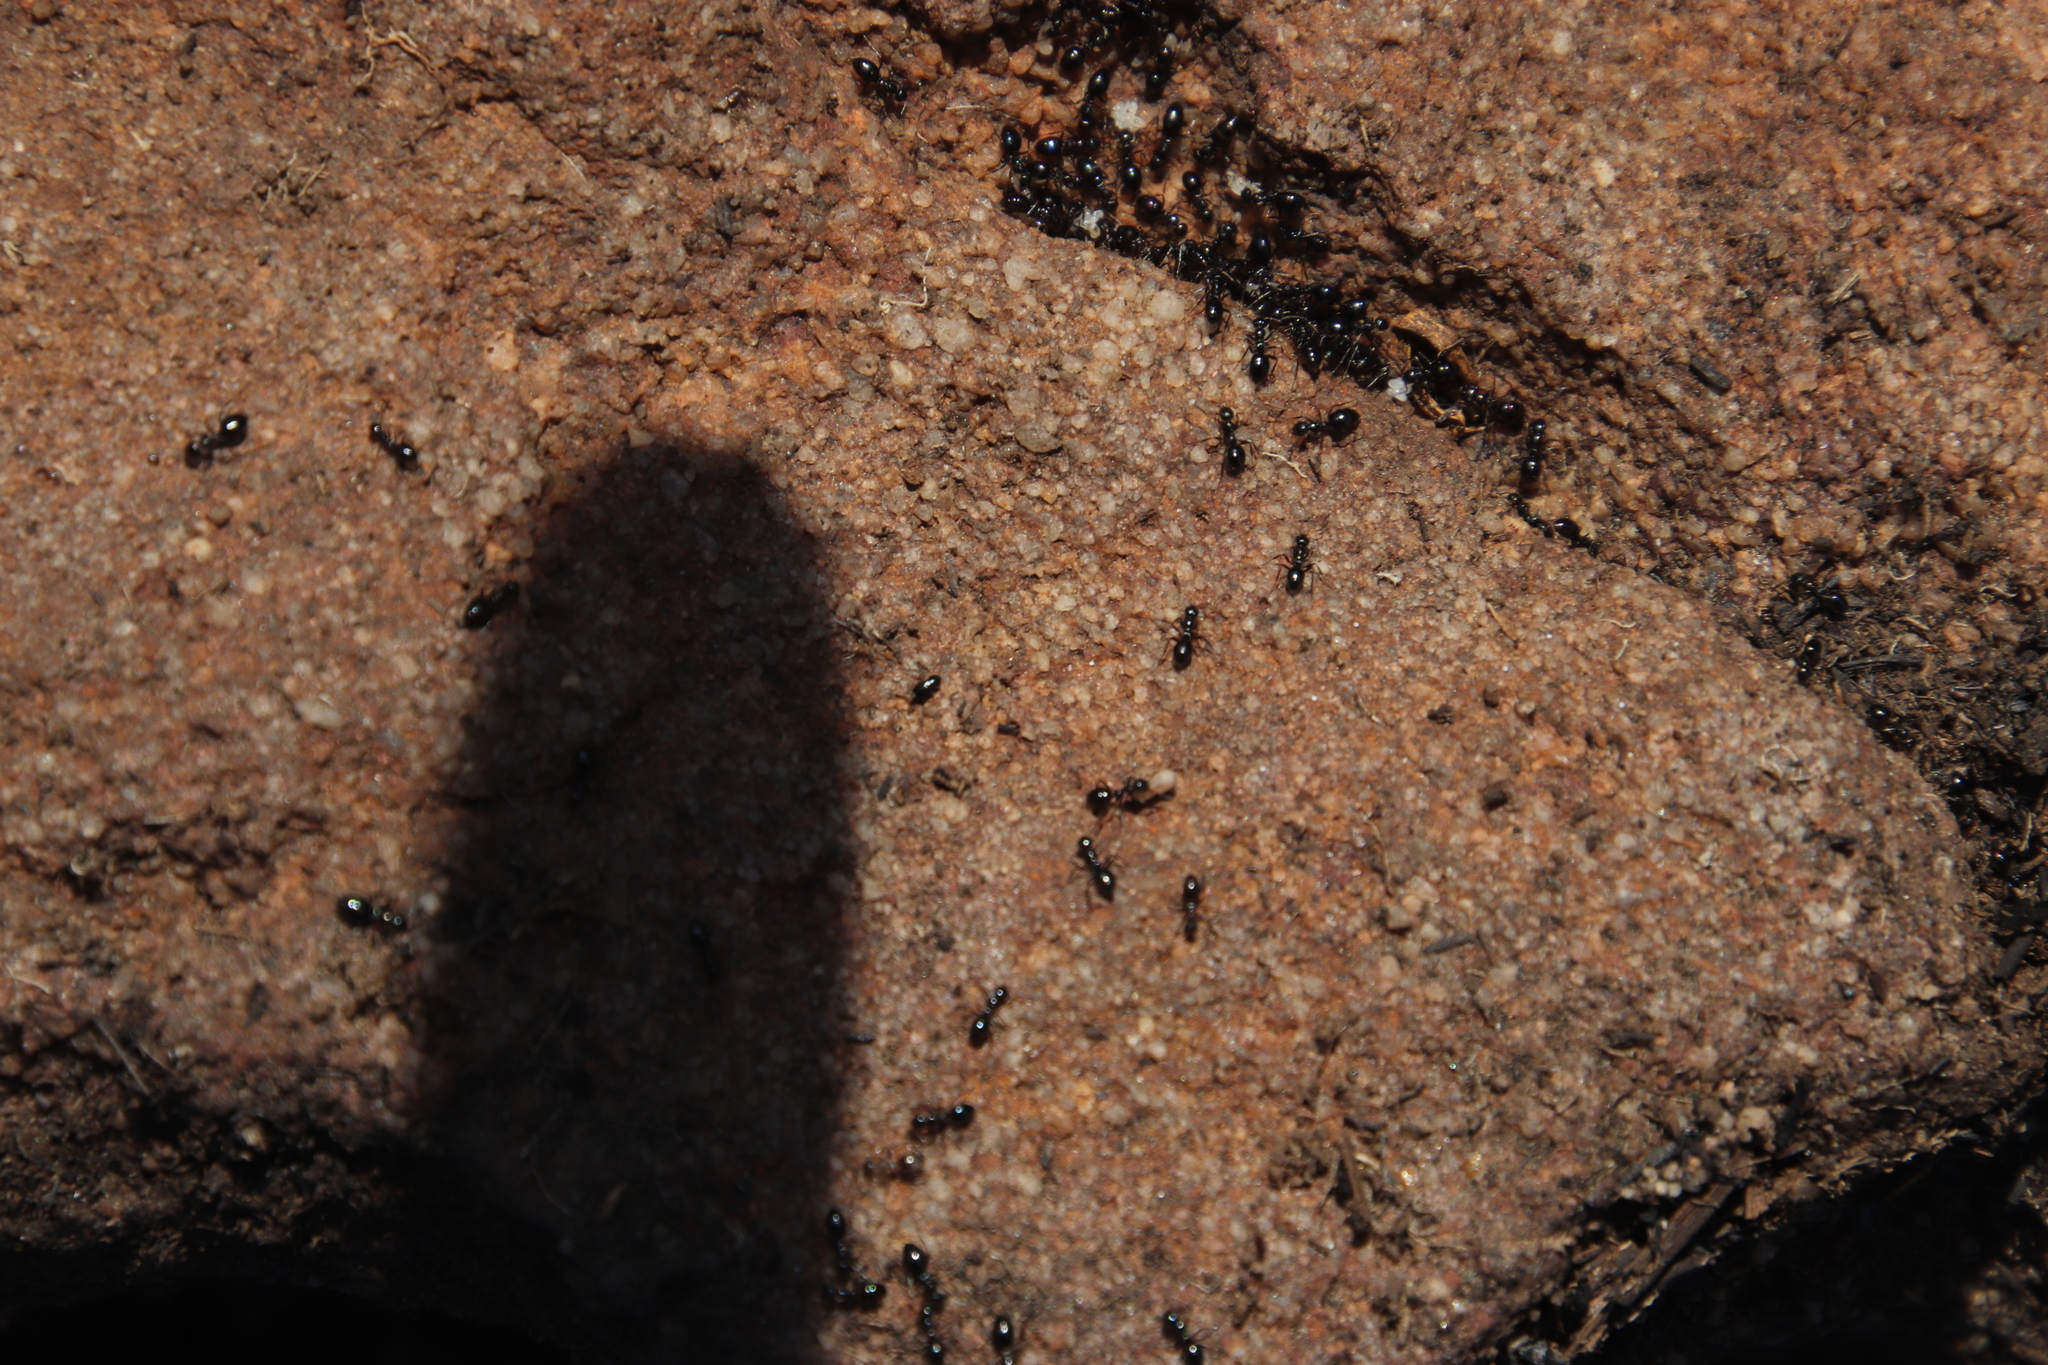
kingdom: Animalia
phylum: Arthropoda
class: Insecta
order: Hymenoptera
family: Formicidae
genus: Lepisiota
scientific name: Lepisiota capensis
